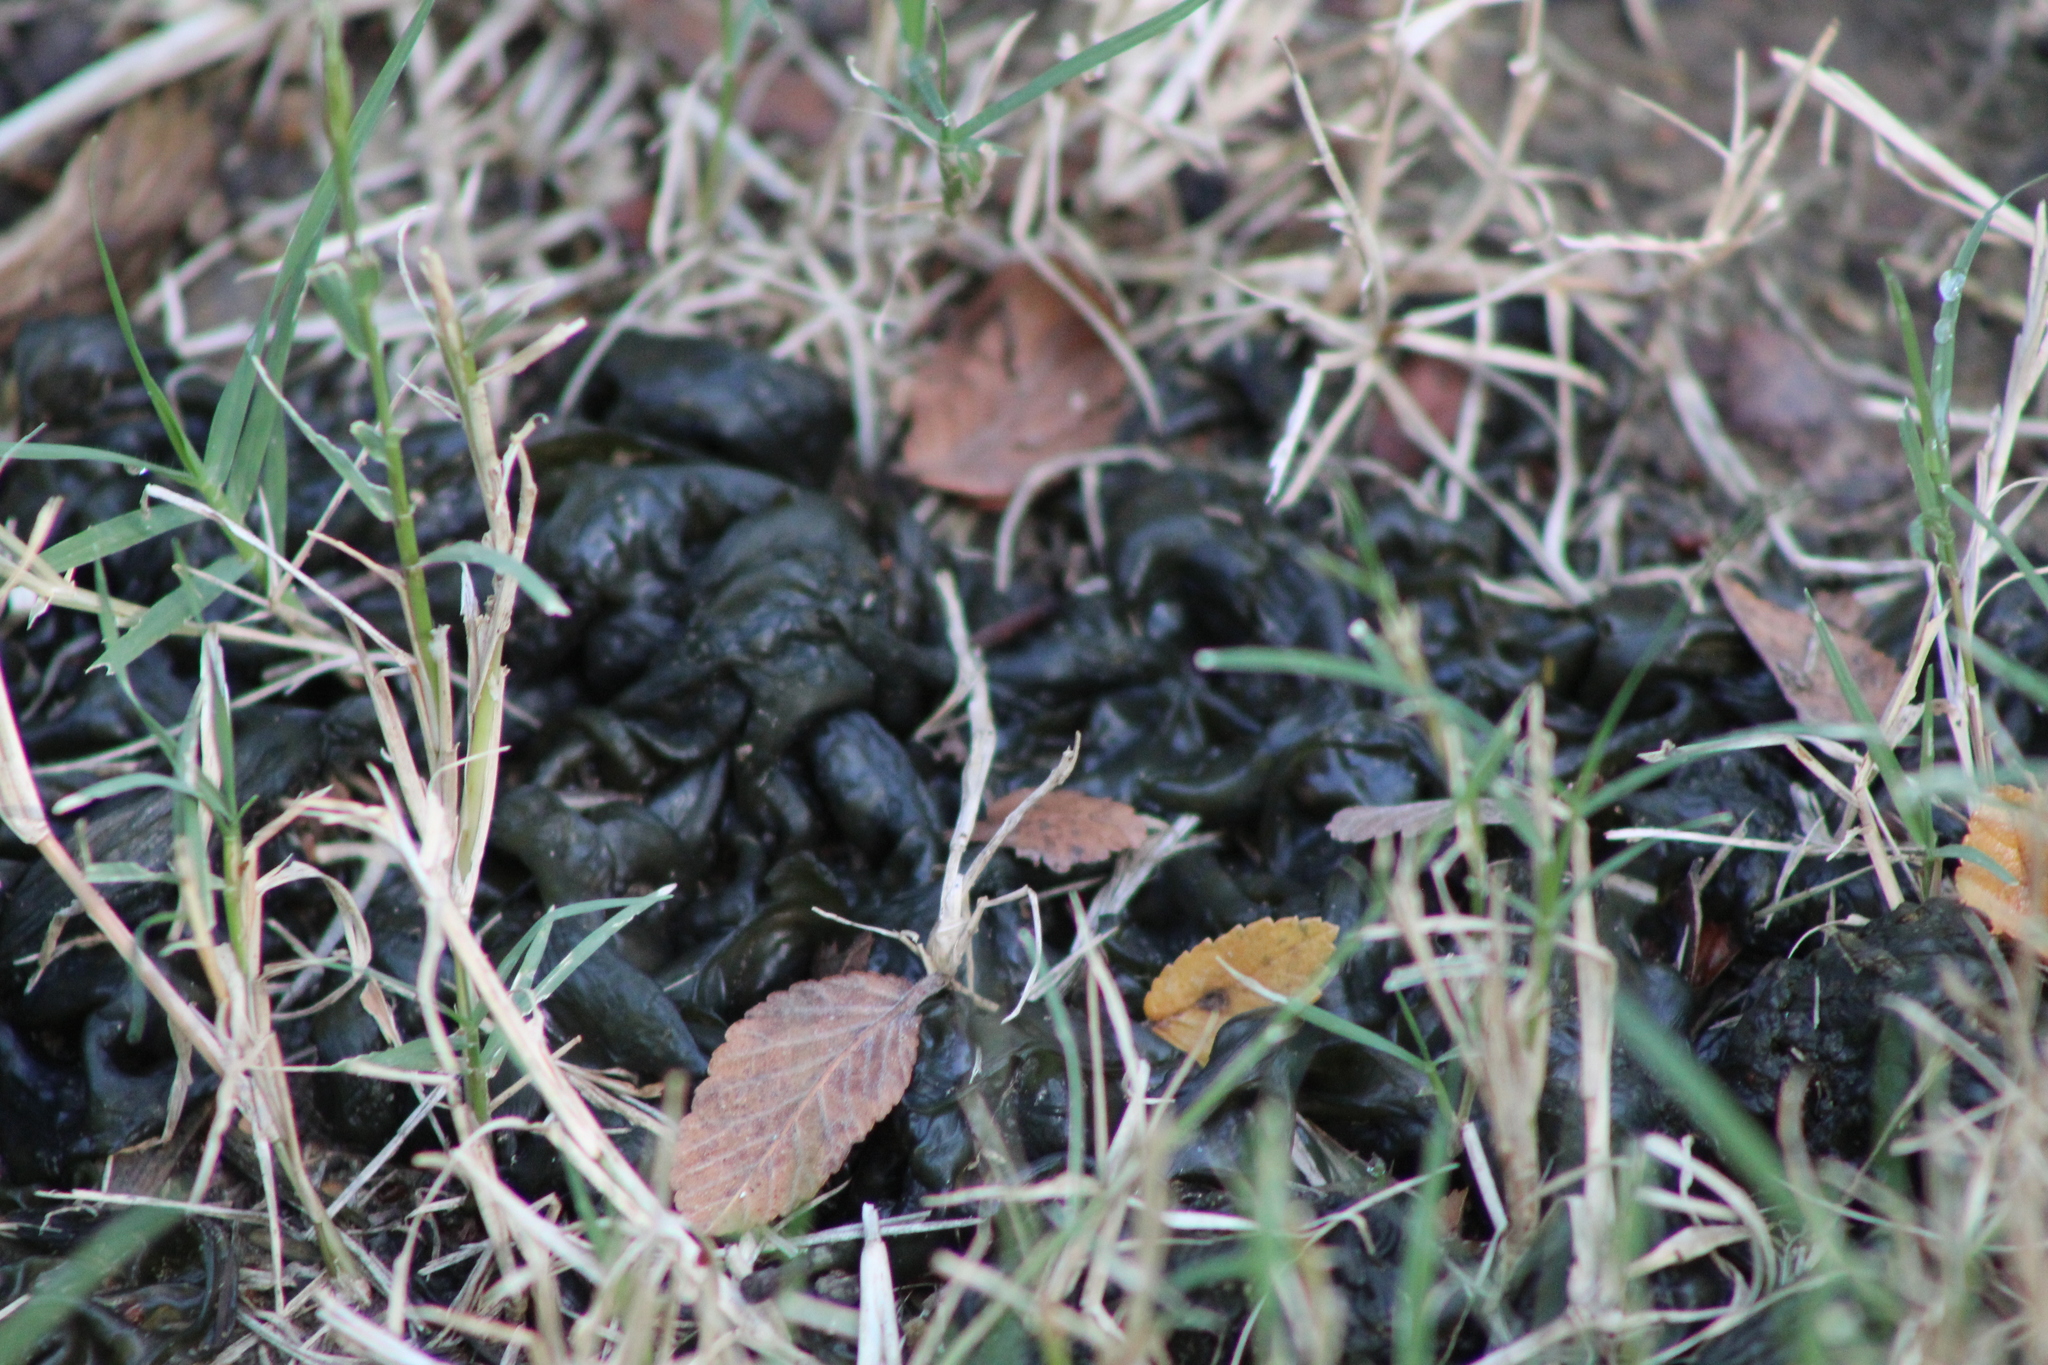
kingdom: Bacteria
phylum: Cyanobacteria
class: Cyanobacteriia
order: Cyanobacteriales
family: Nostocaceae
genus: Nostoc
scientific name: Nostoc commune
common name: Star jelly
